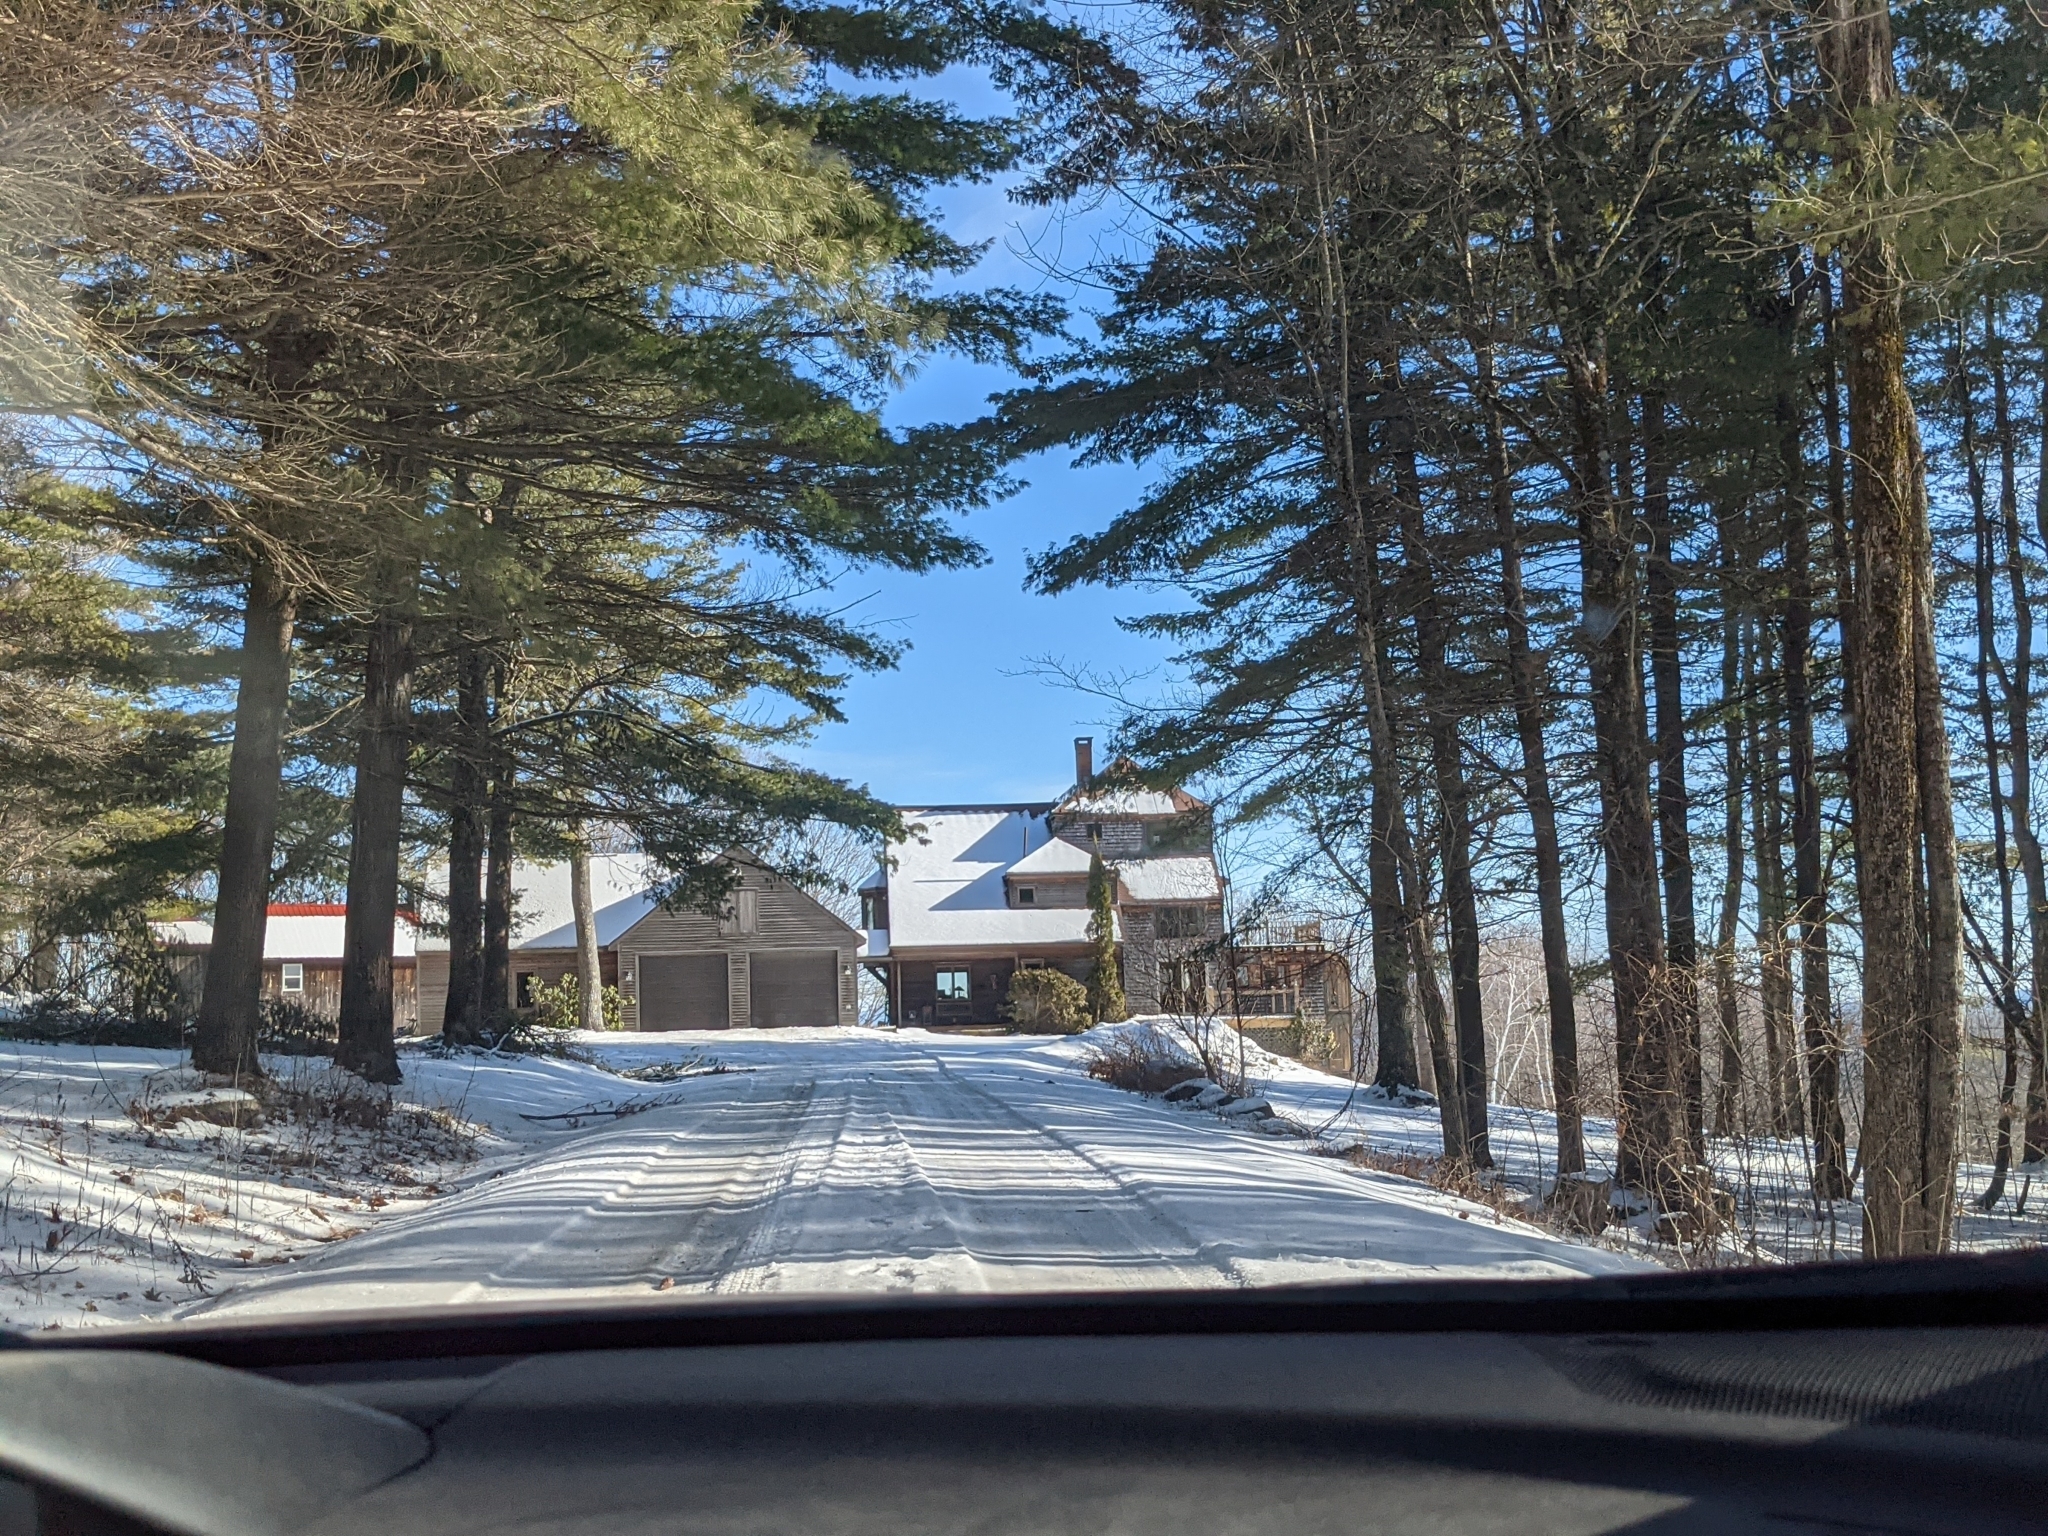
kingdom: Plantae
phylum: Tracheophyta
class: Pinopsida
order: Pinales
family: Pinaceae
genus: Pinus
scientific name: Pinus strobus
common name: Weymouth pine
